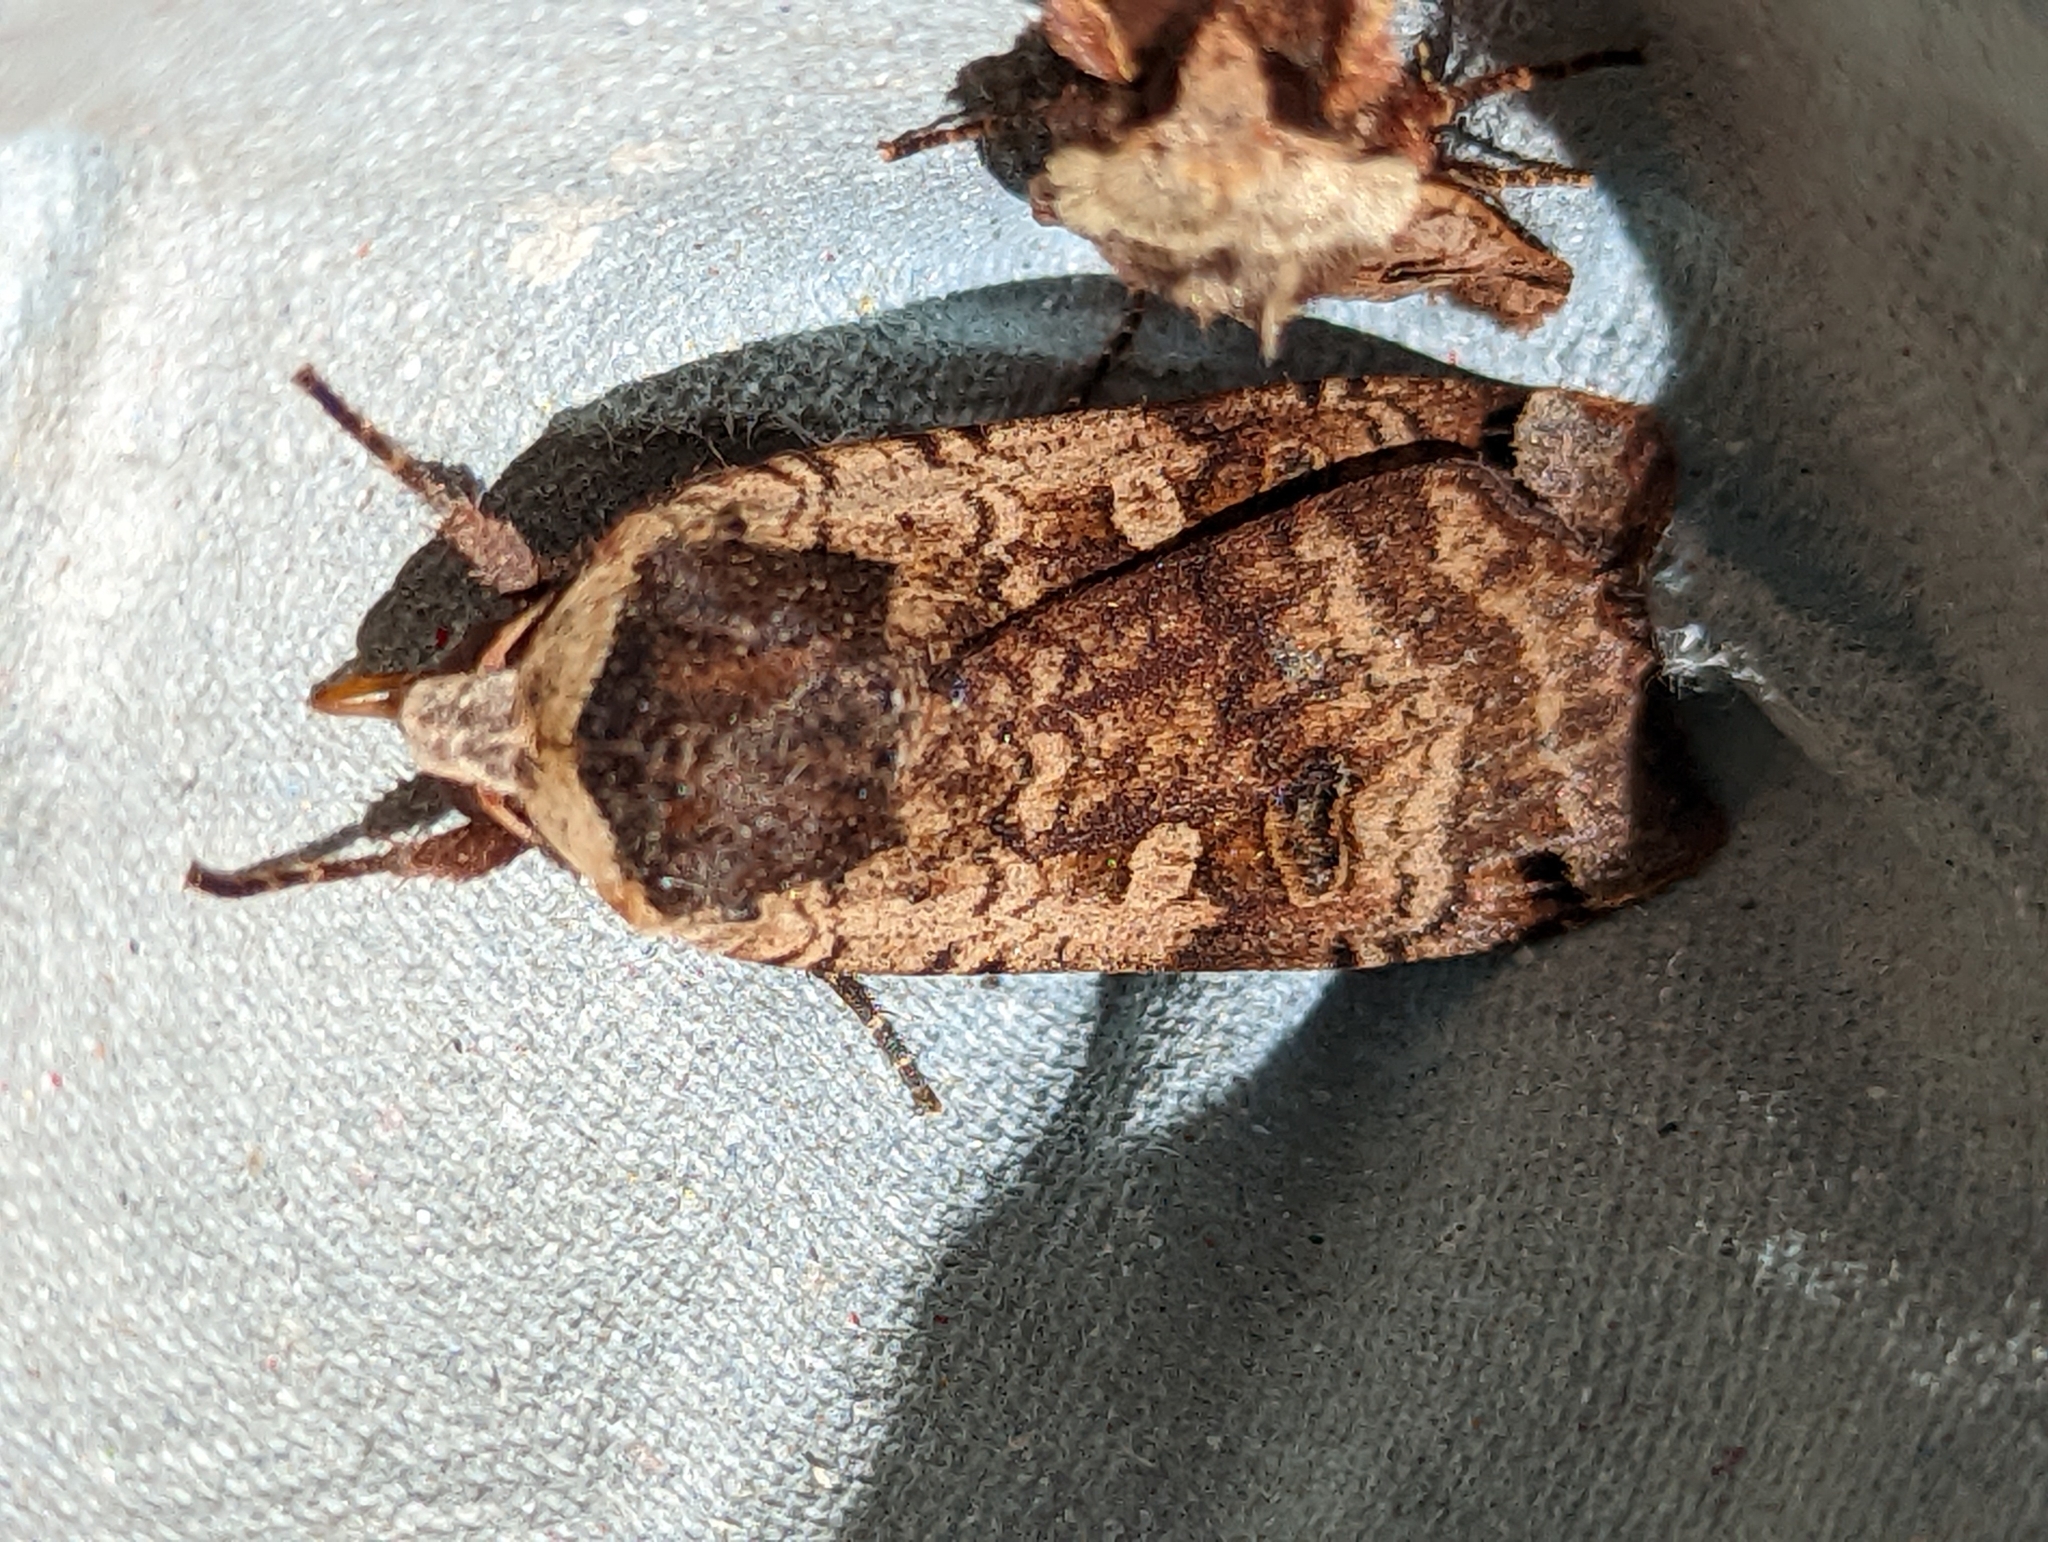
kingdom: Animalia
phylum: Arthropoda
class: Insecta
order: Lepidoptera
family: Noctuidae
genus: Noctua
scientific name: Noctua pronuba
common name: Large yellow underwing
